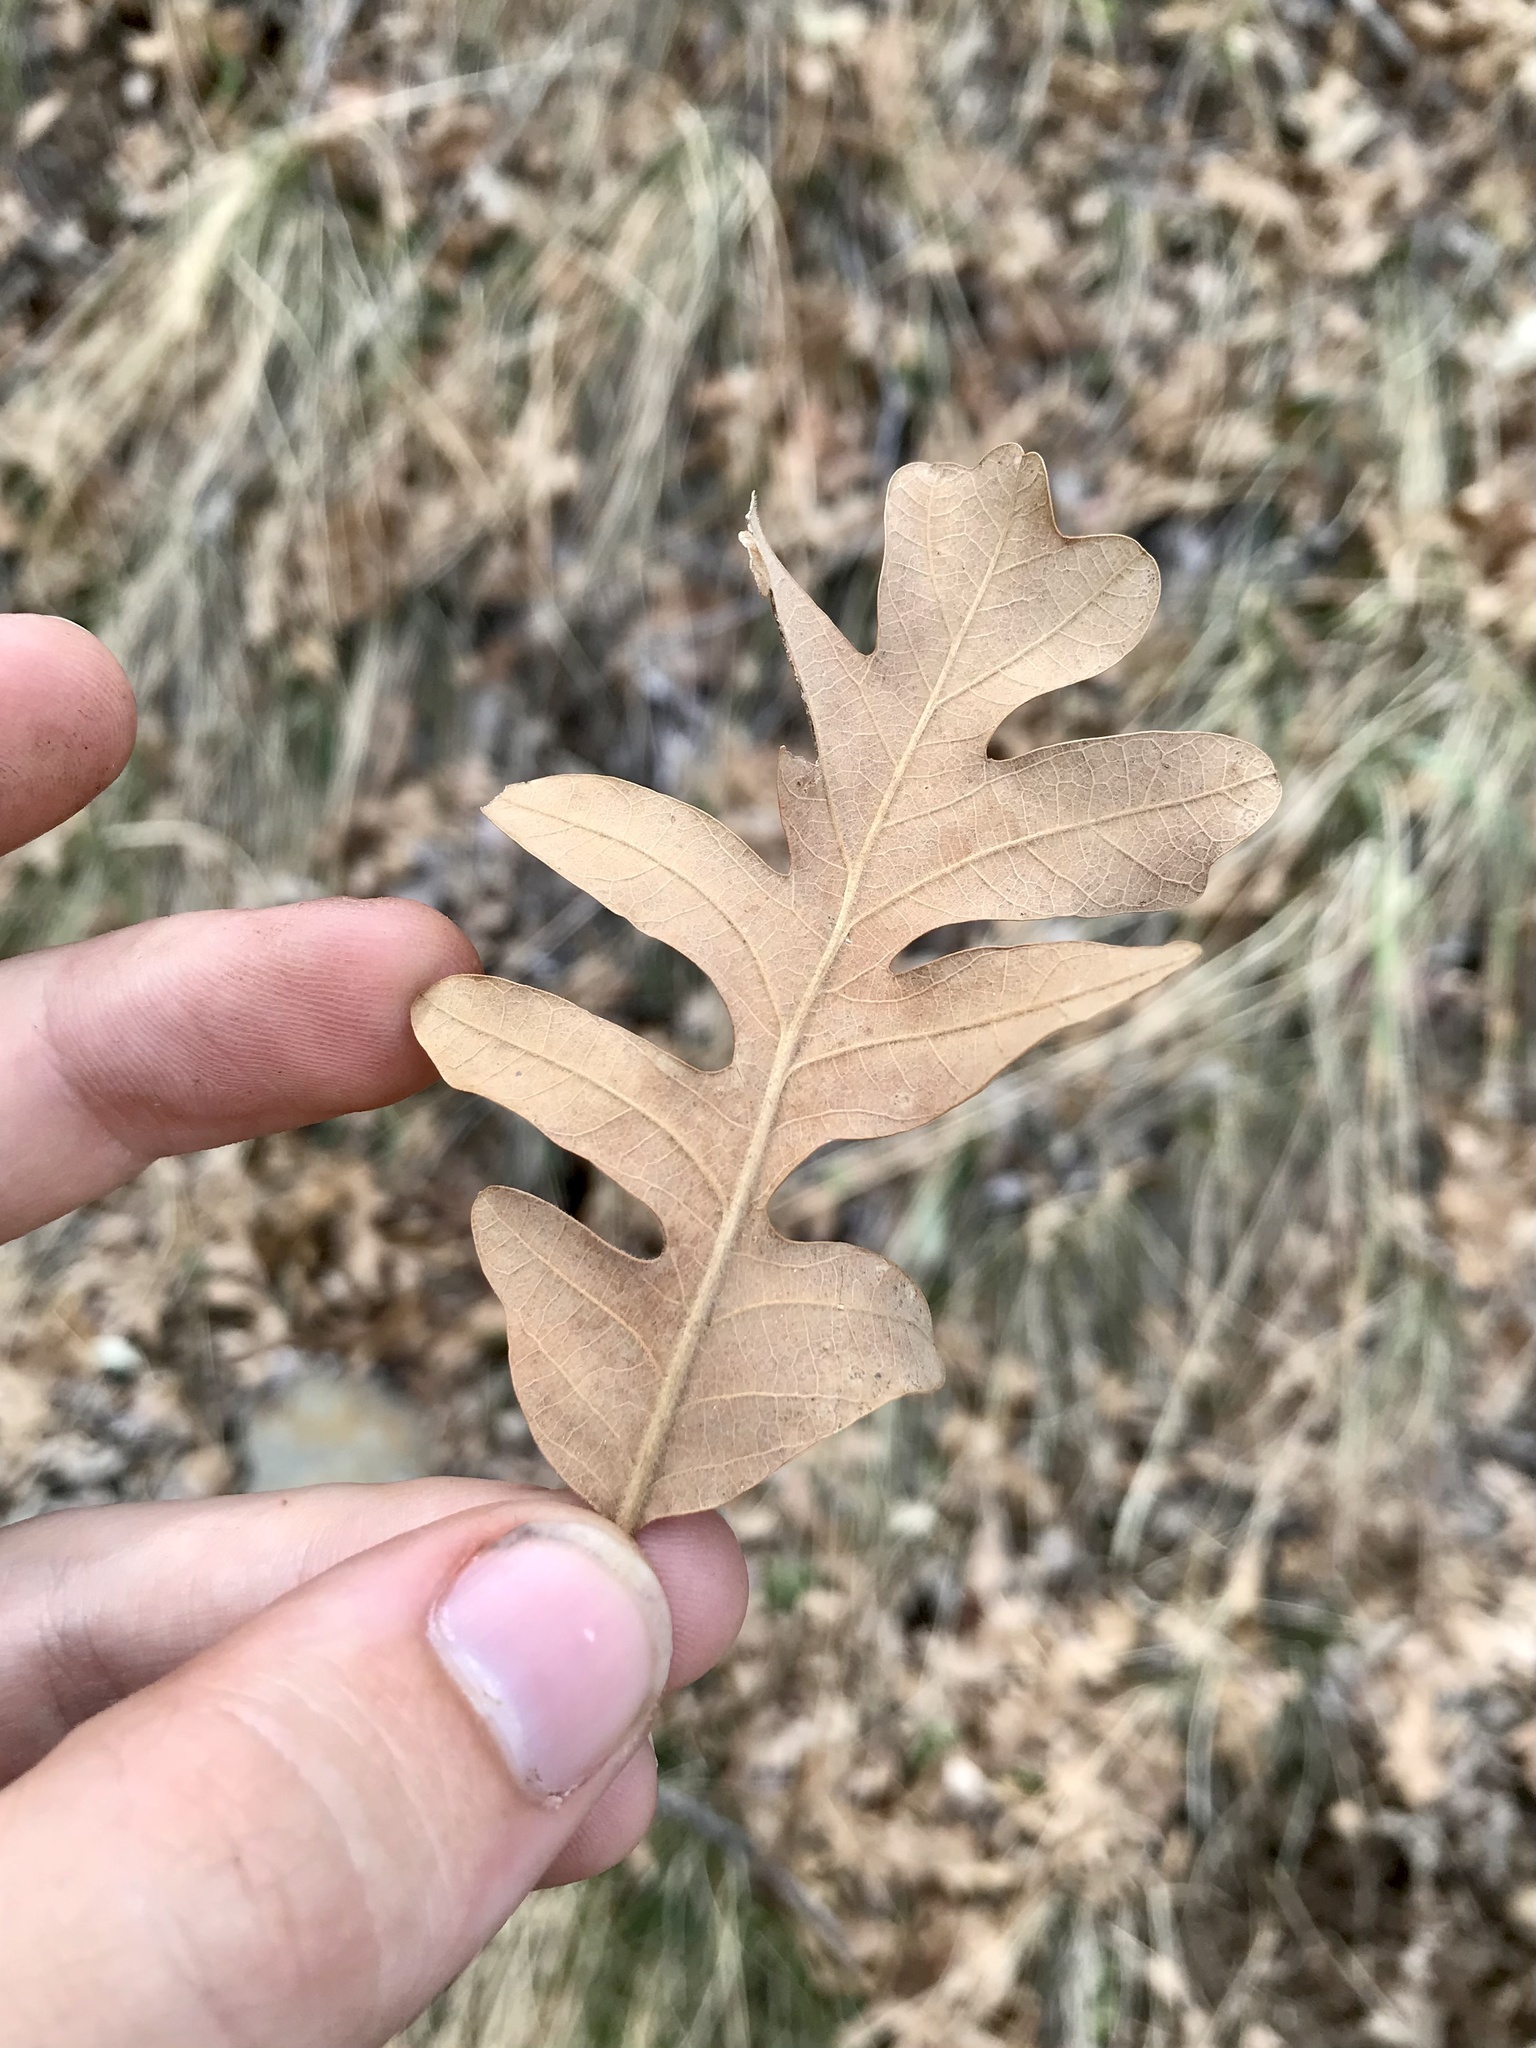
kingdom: Plantae
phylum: Tracheophyta
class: Magnoliopsida
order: Fagales
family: Fagaceae
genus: Quercus
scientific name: Quercus gambelii
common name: Gambel oak
